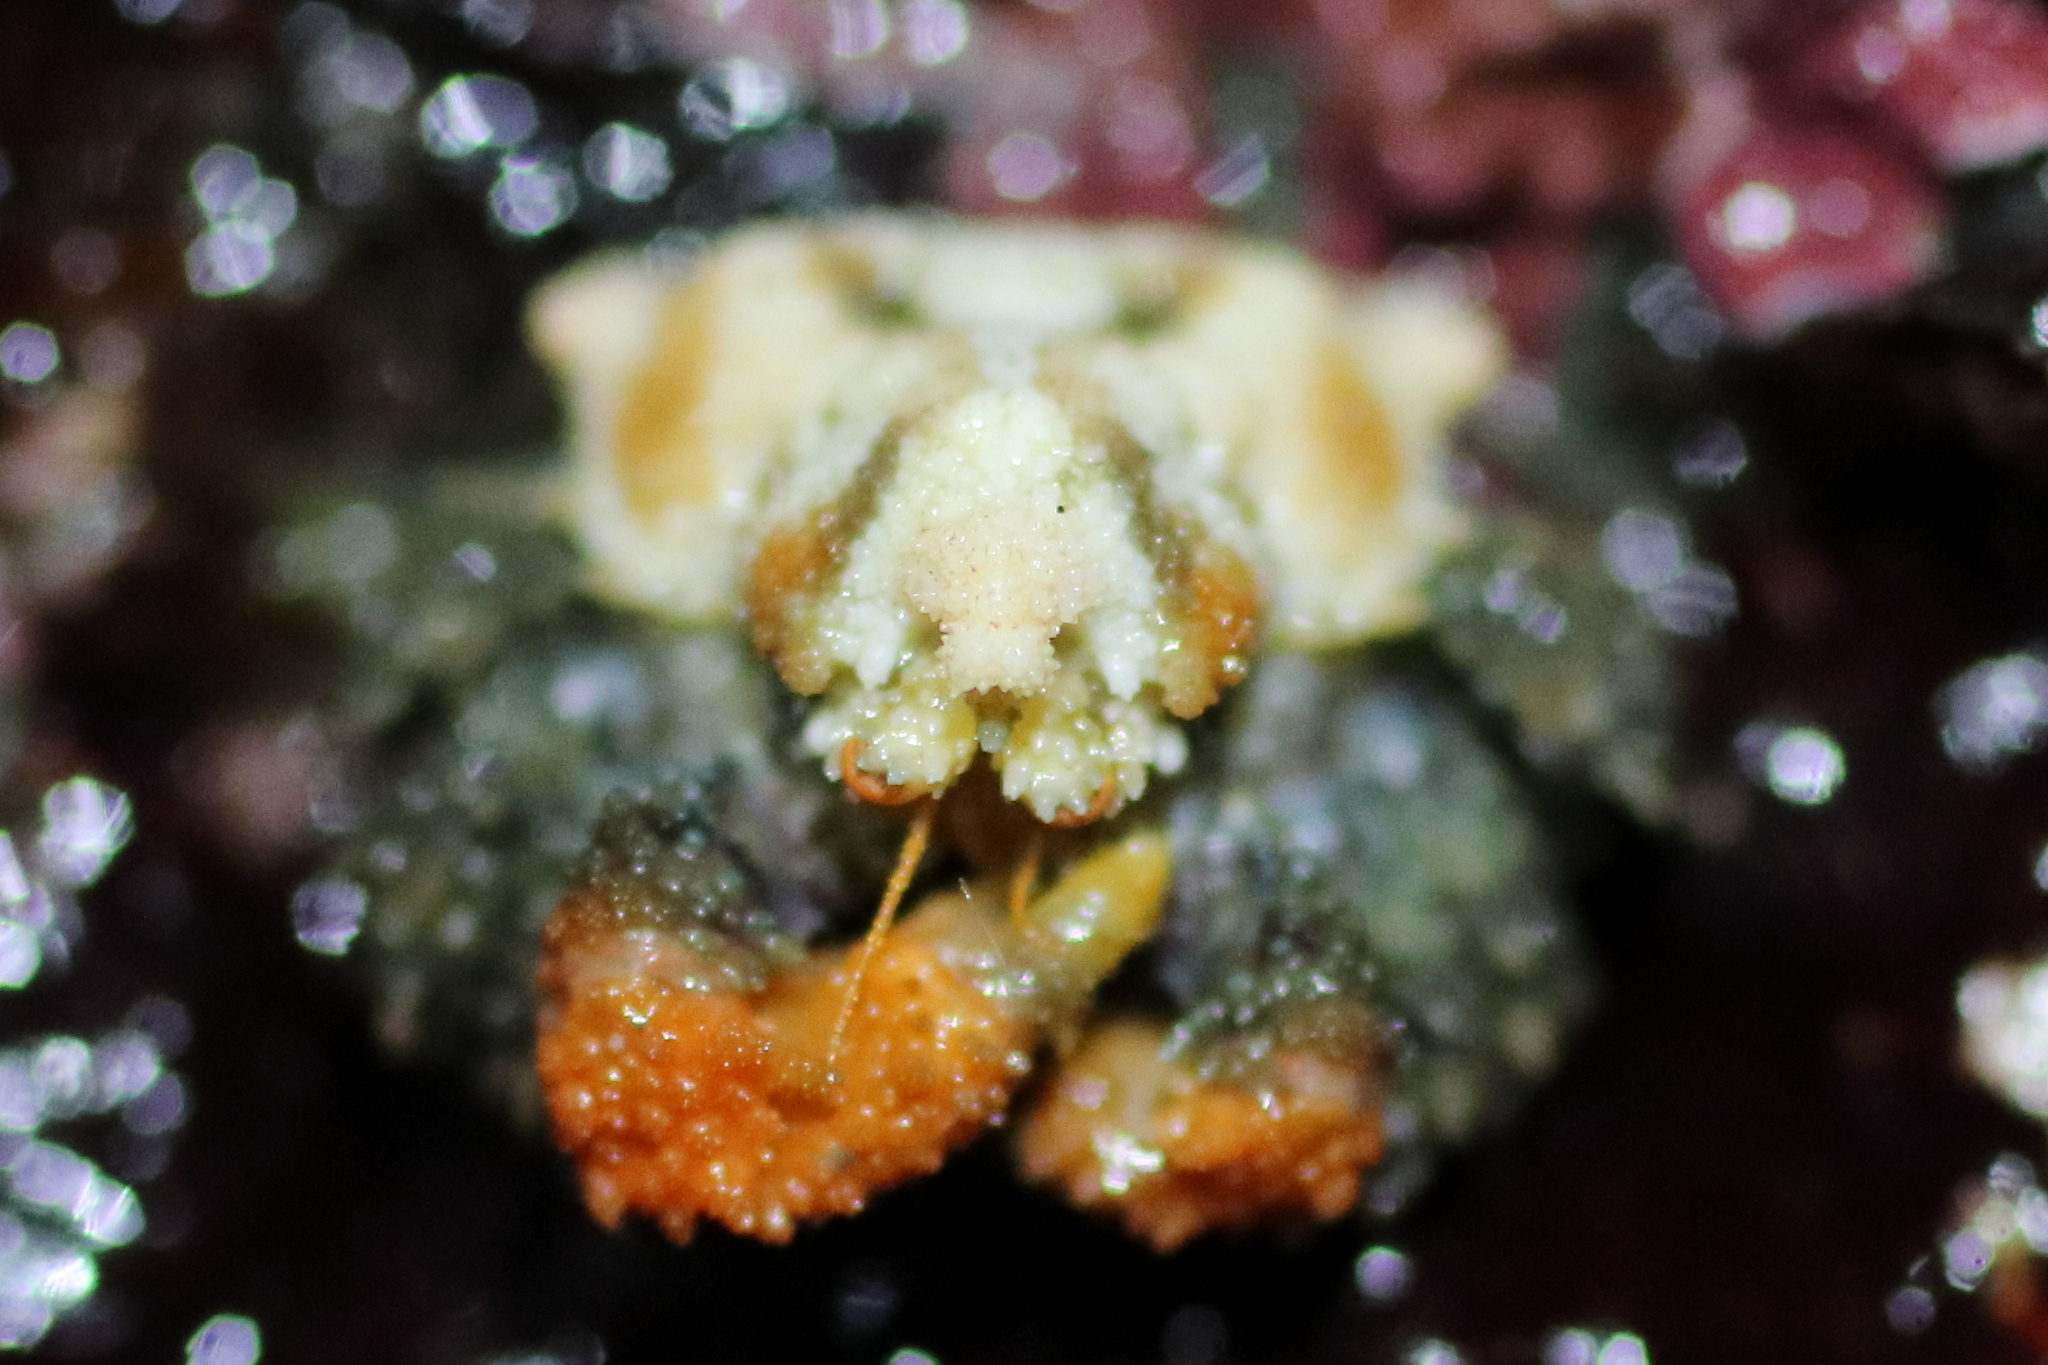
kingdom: Animalia
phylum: Arthropoda
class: Malacostraca
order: Decapoda
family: Lithodidae
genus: Phyllolithodes
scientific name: Phyllolithodes papillosus
